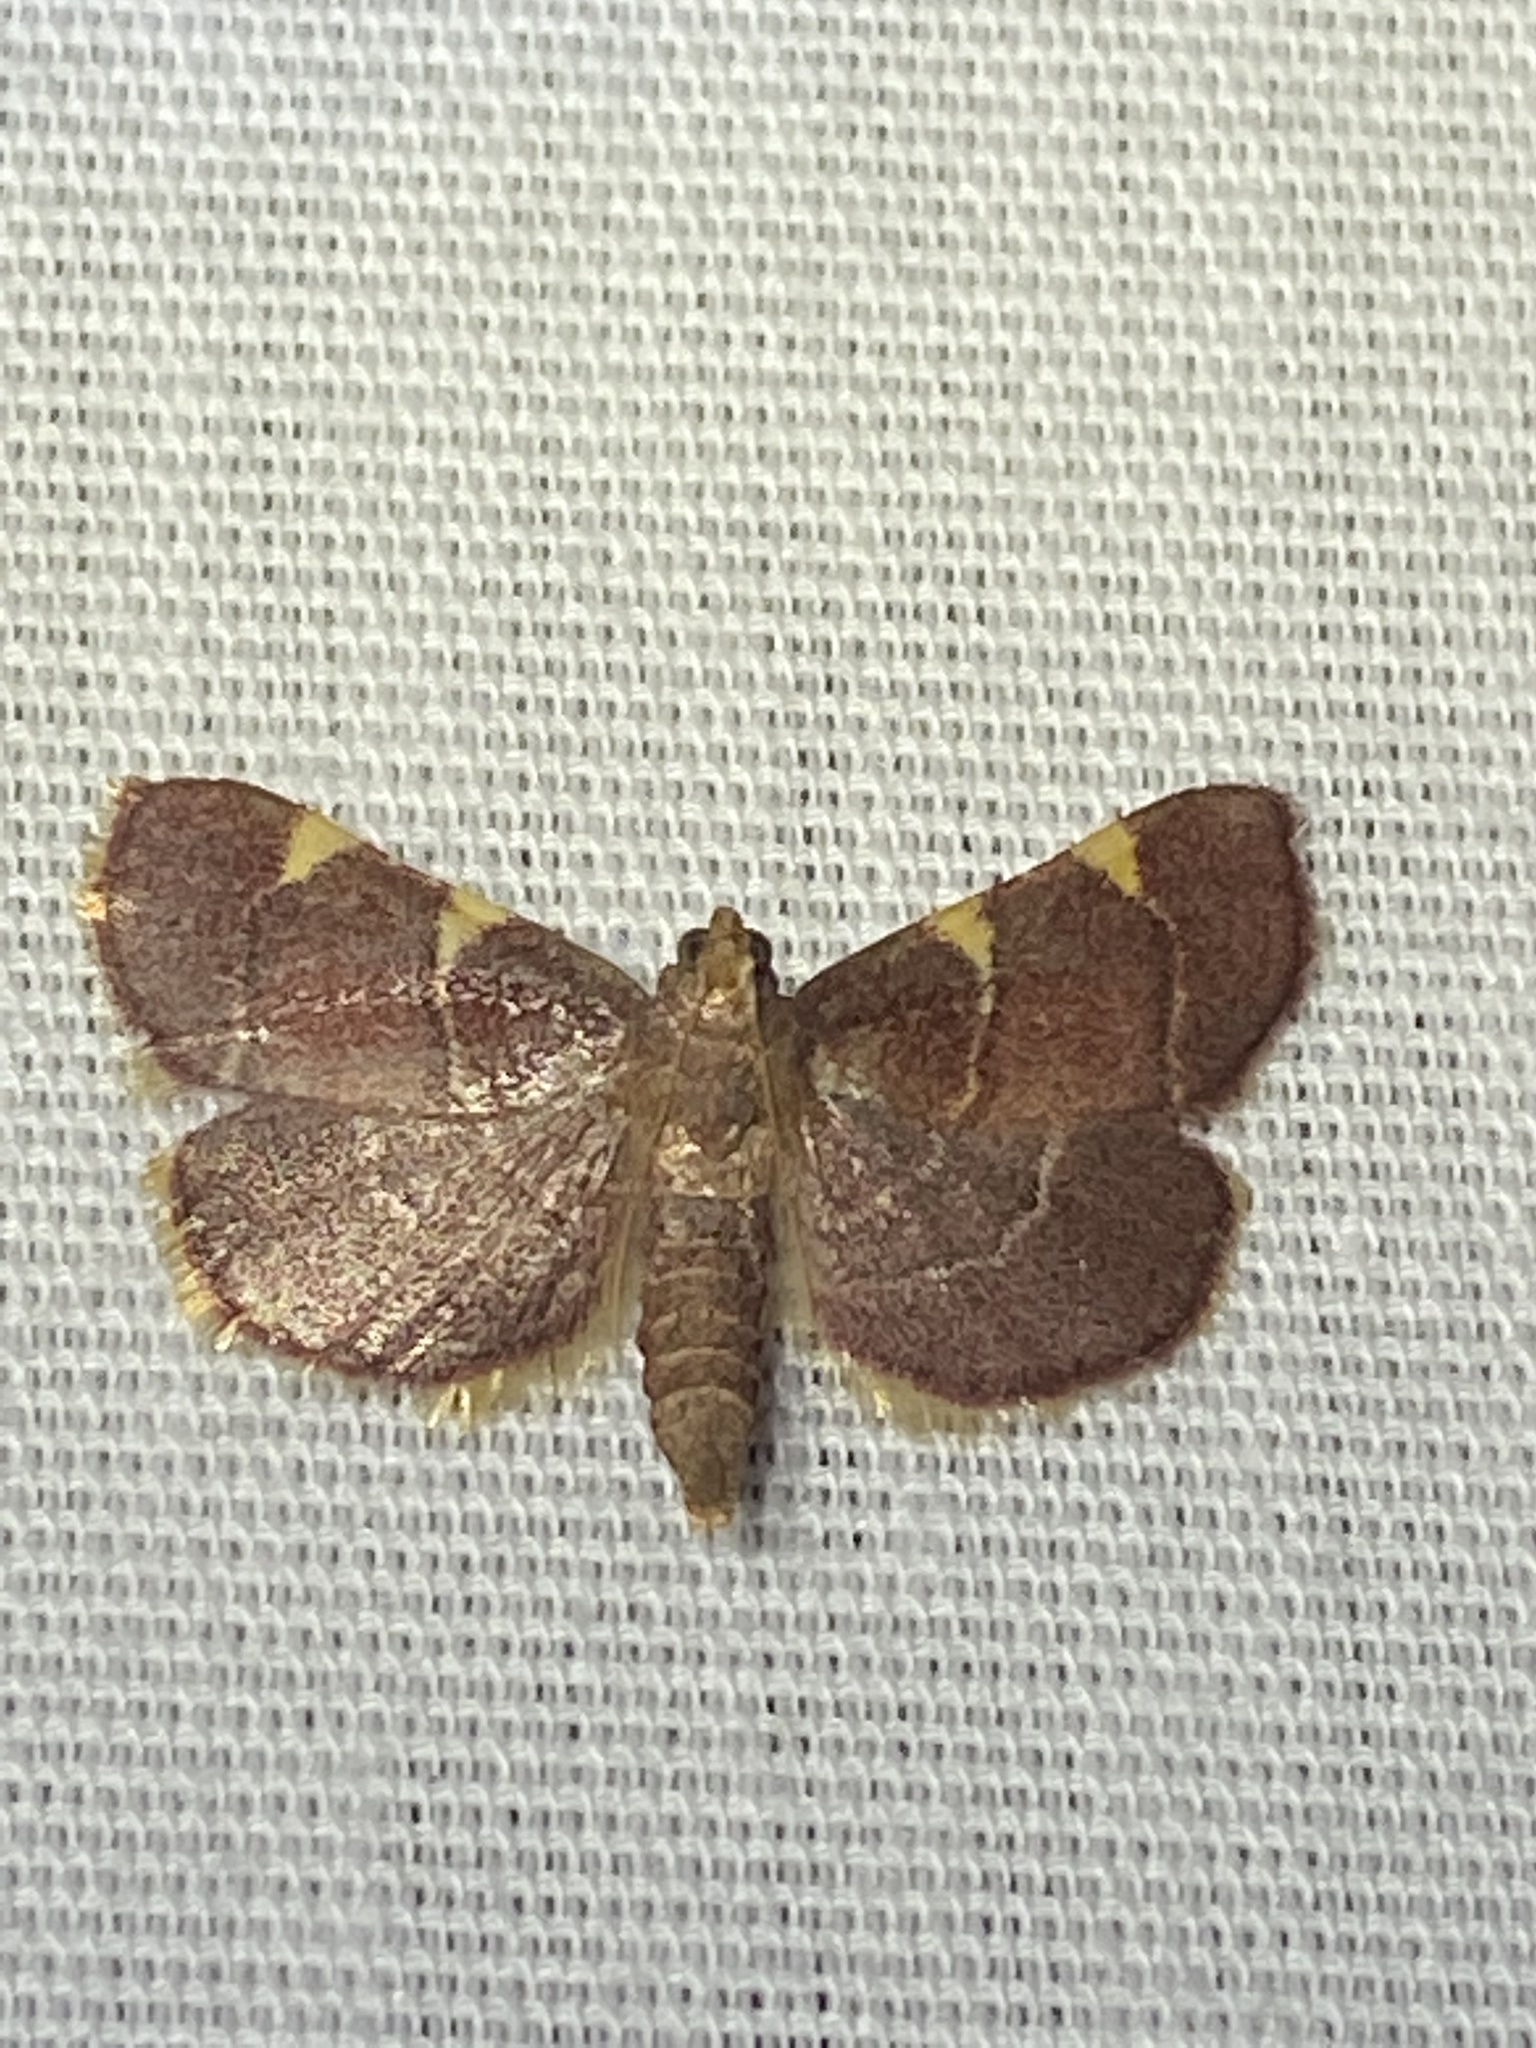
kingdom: Animalia
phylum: Arthropoda
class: Insecta
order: Lepidoptera
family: Pyralidae
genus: Hypsopygia
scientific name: Hypsopygia olinalis
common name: Yellow-fringed dolichomia moth
